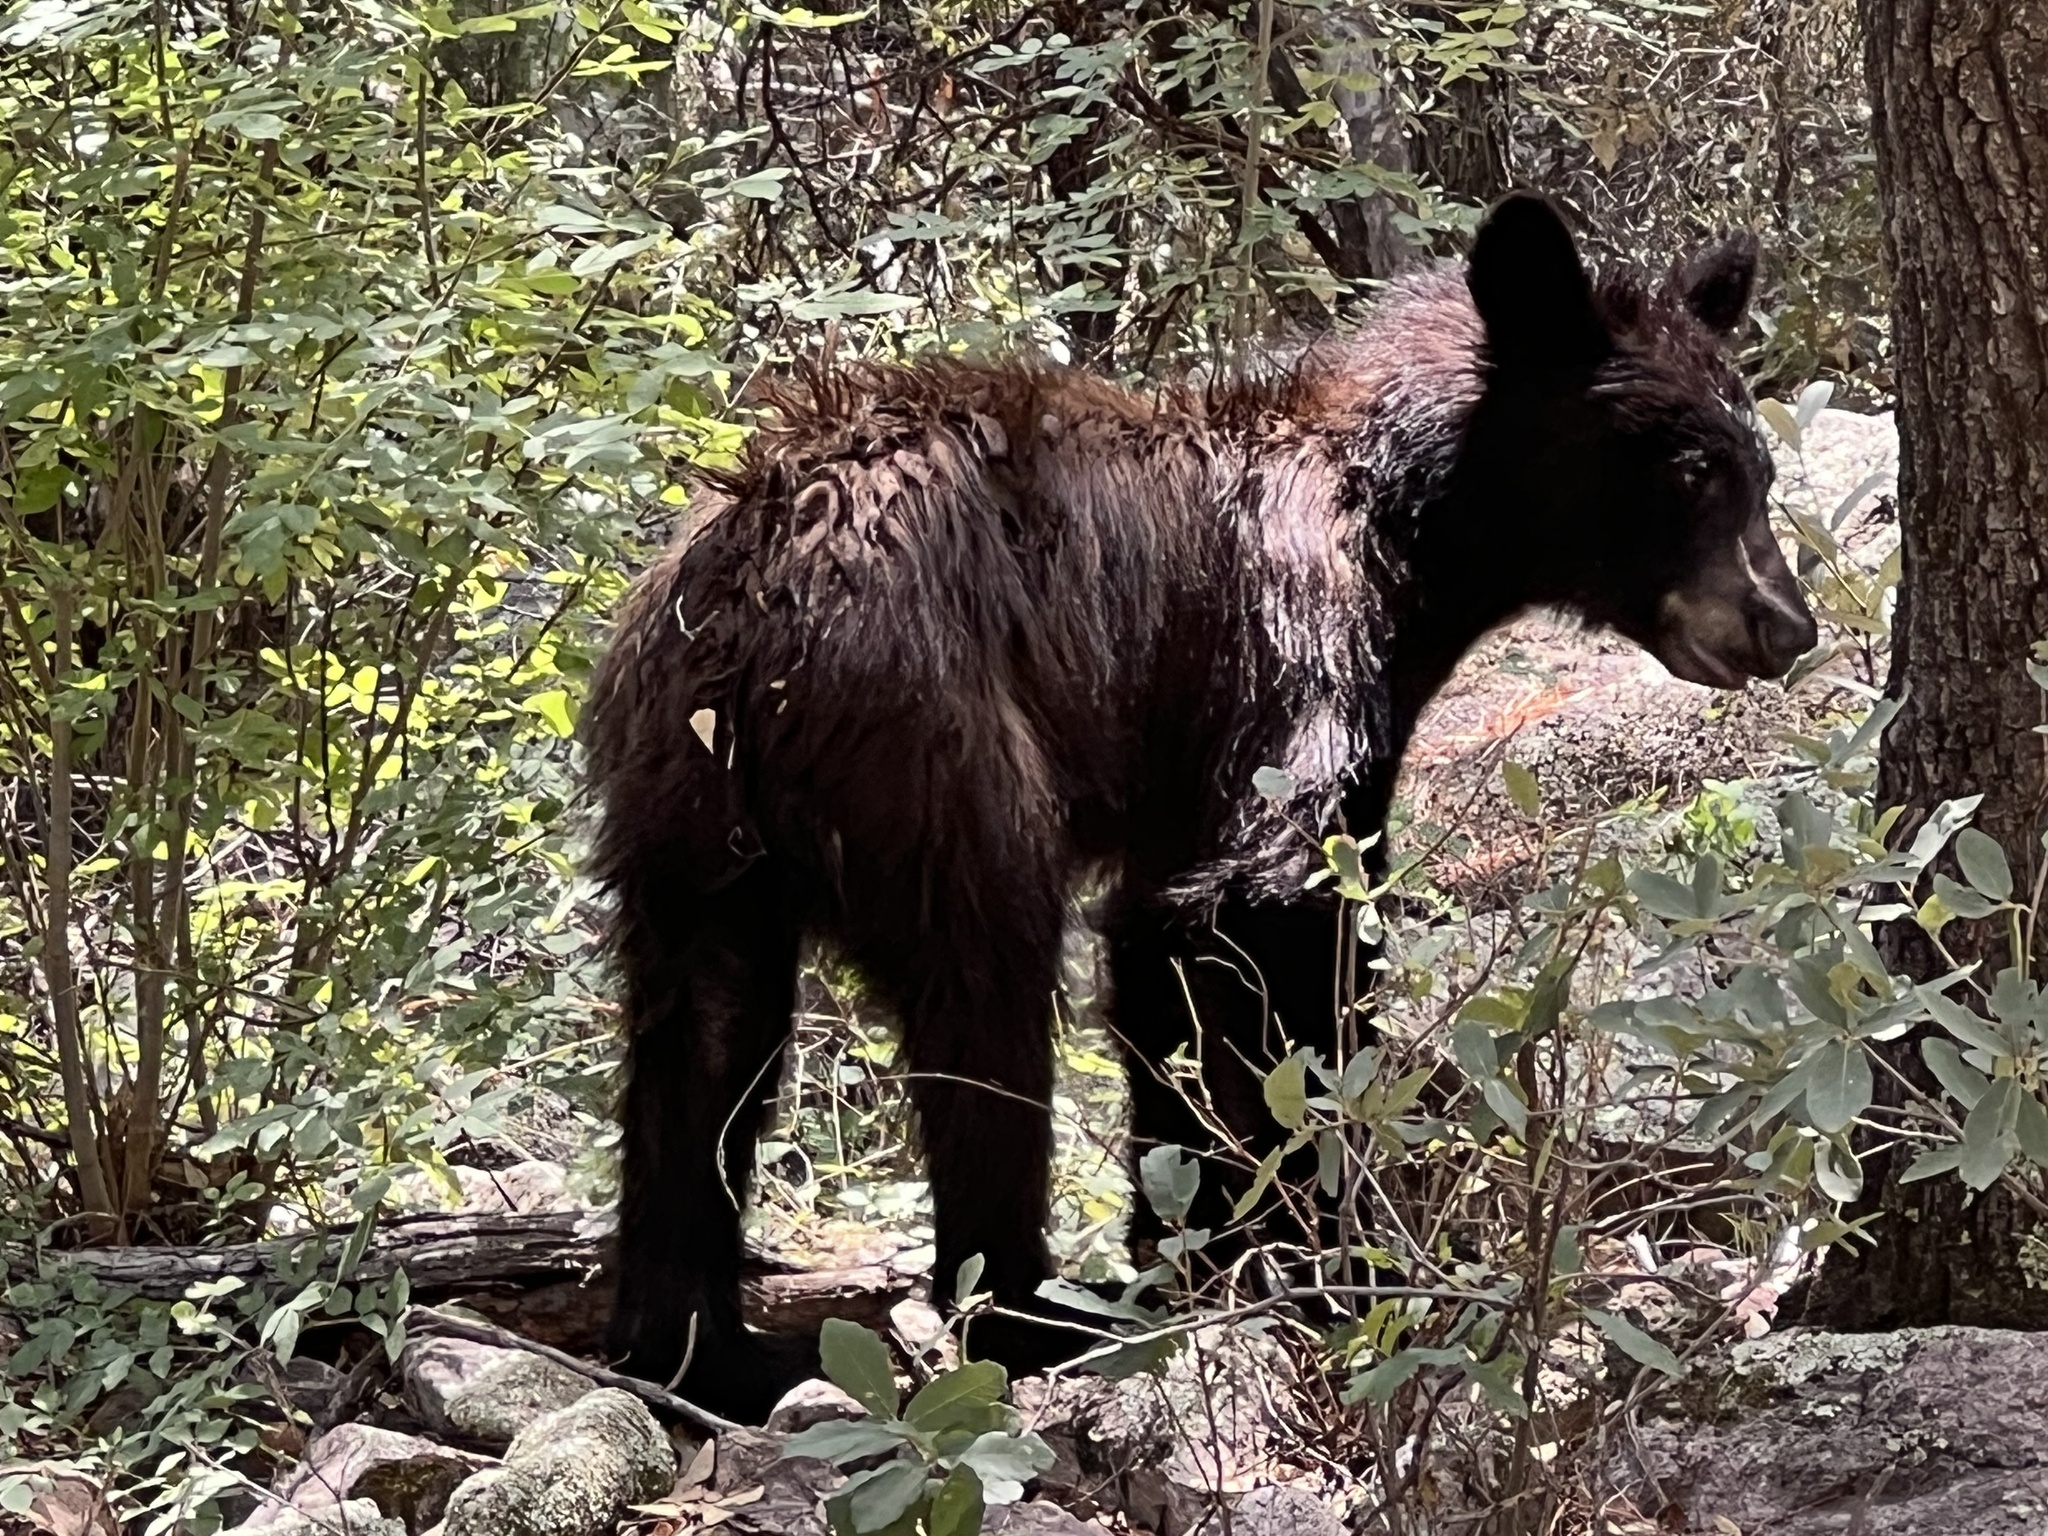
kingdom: Animalia
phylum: Chordata
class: Mammalia
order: Carnivora
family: Ursidae
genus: Ursus
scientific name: Ursus americanus
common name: American black bear
